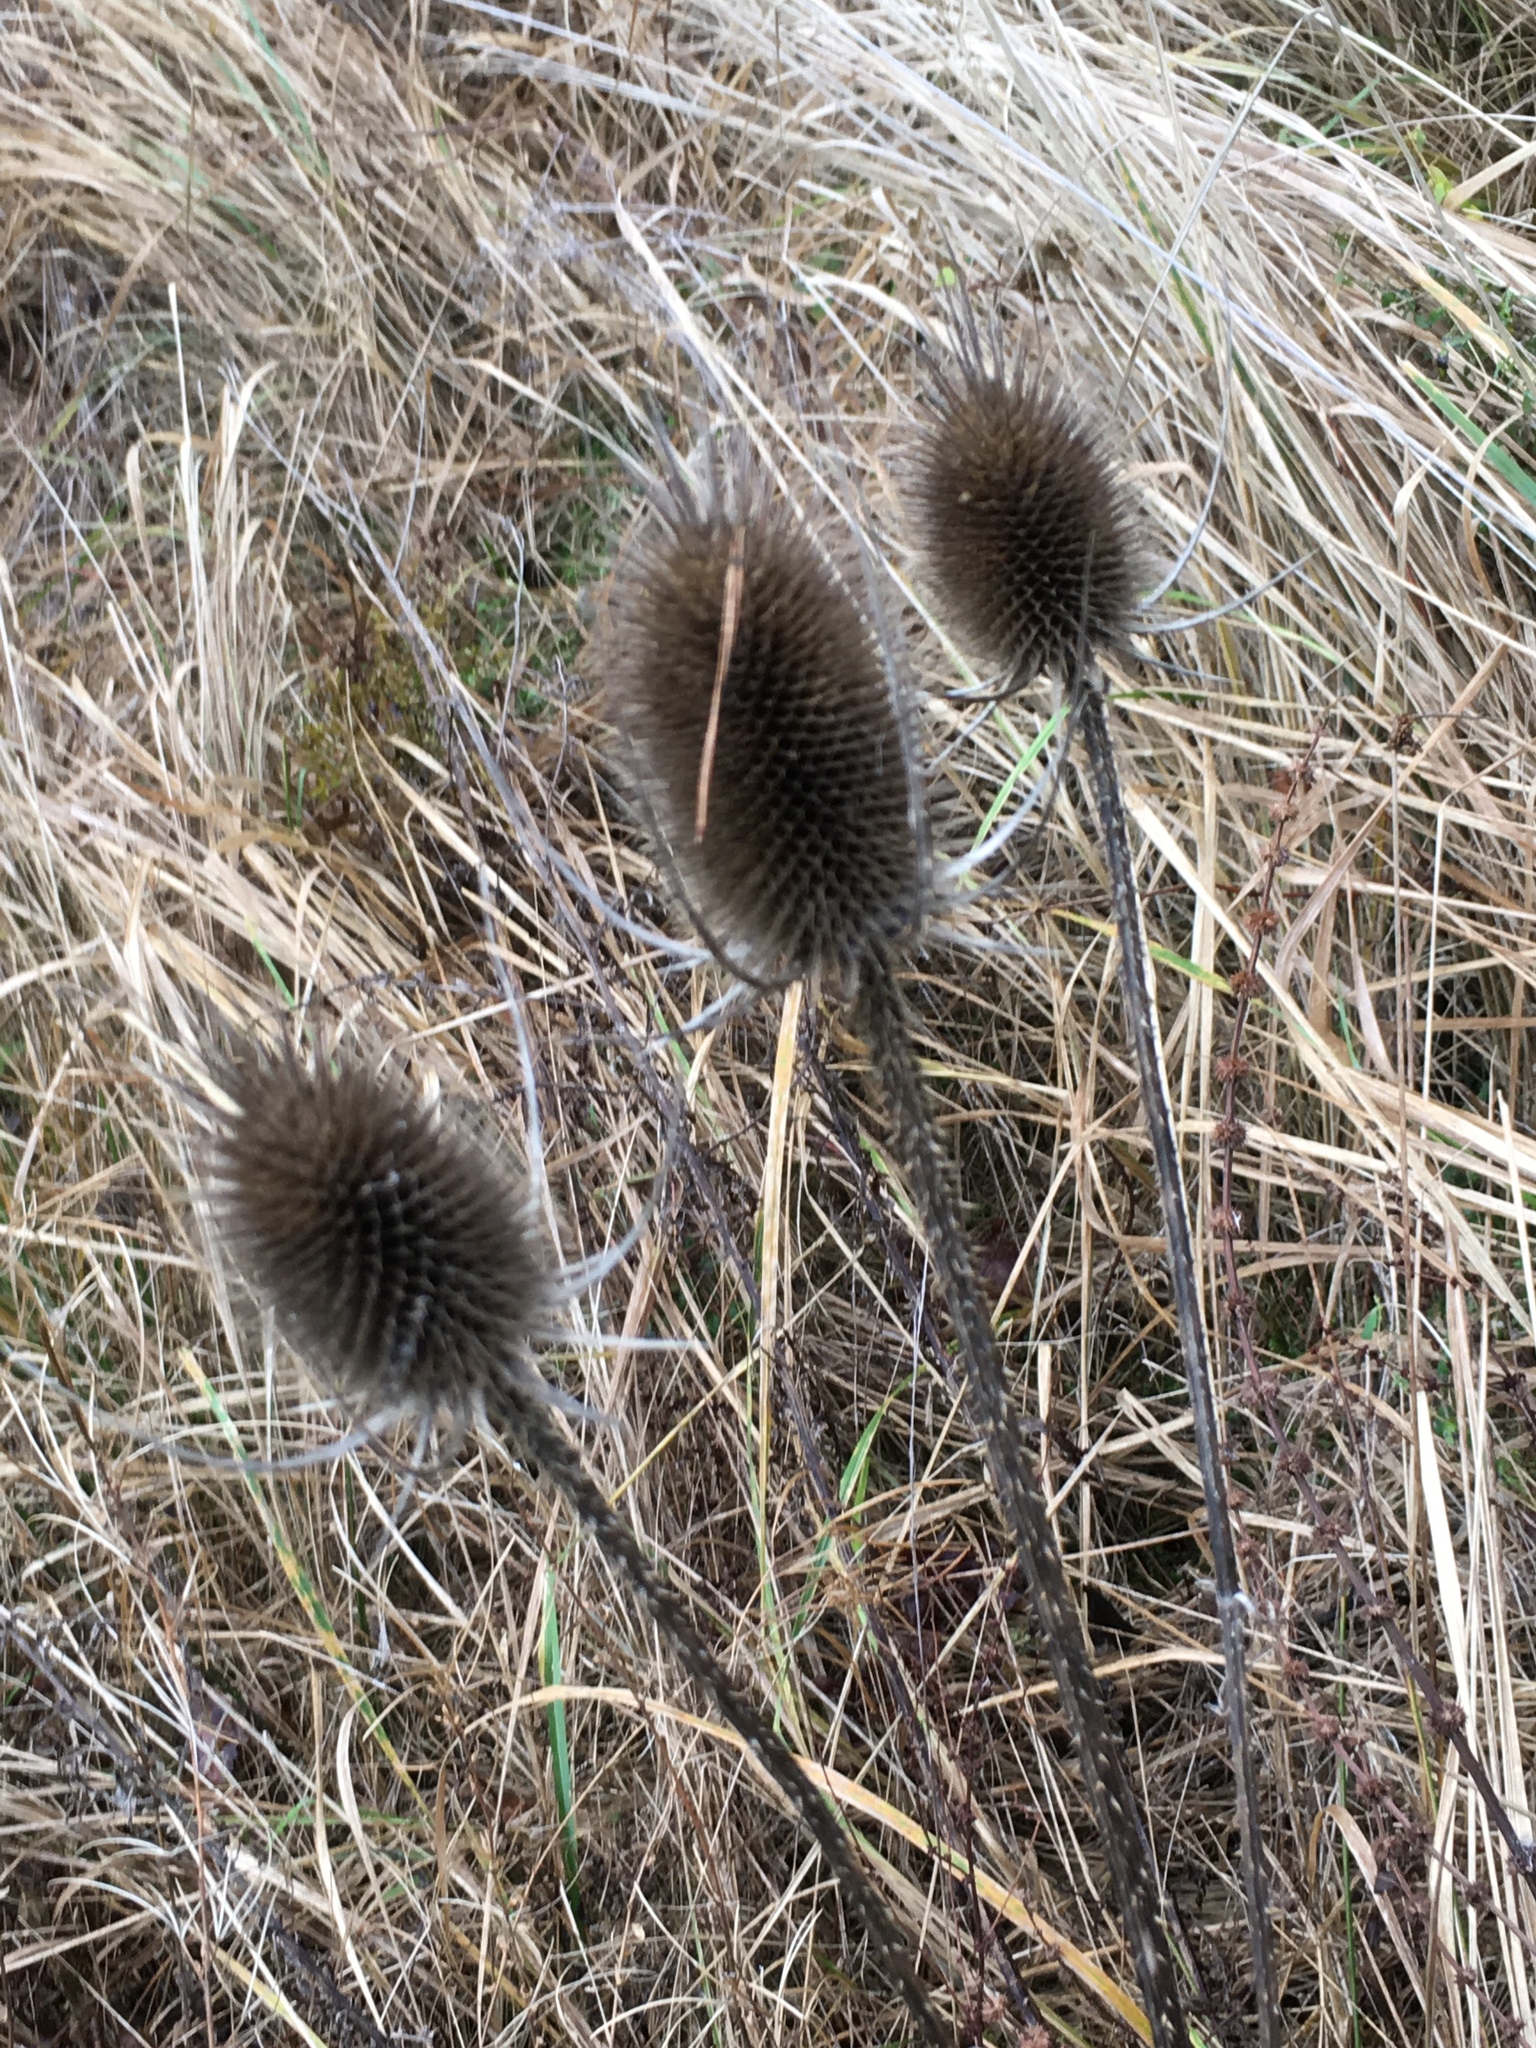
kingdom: Plantae
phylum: Tracheophyta
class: Magnoliopsida
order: Dipsacales
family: Caprifoliaceae
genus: Dipsacus
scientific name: Dipsacus fullonum
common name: Teasel
